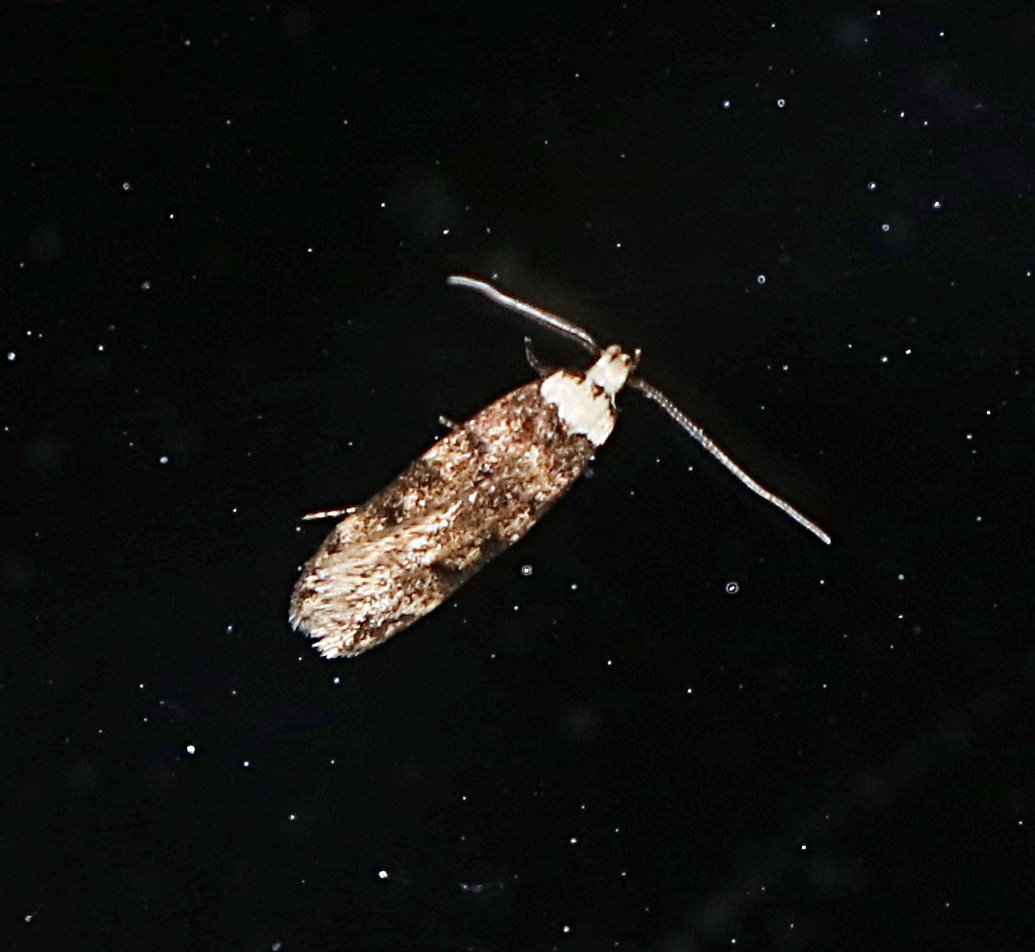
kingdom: Animalia
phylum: Arthropoda
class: Insecta
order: Lepidoptera
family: Oecophoridae
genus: Endrosis
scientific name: Endrosis sarcitrella
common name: White-shouldered house moth
